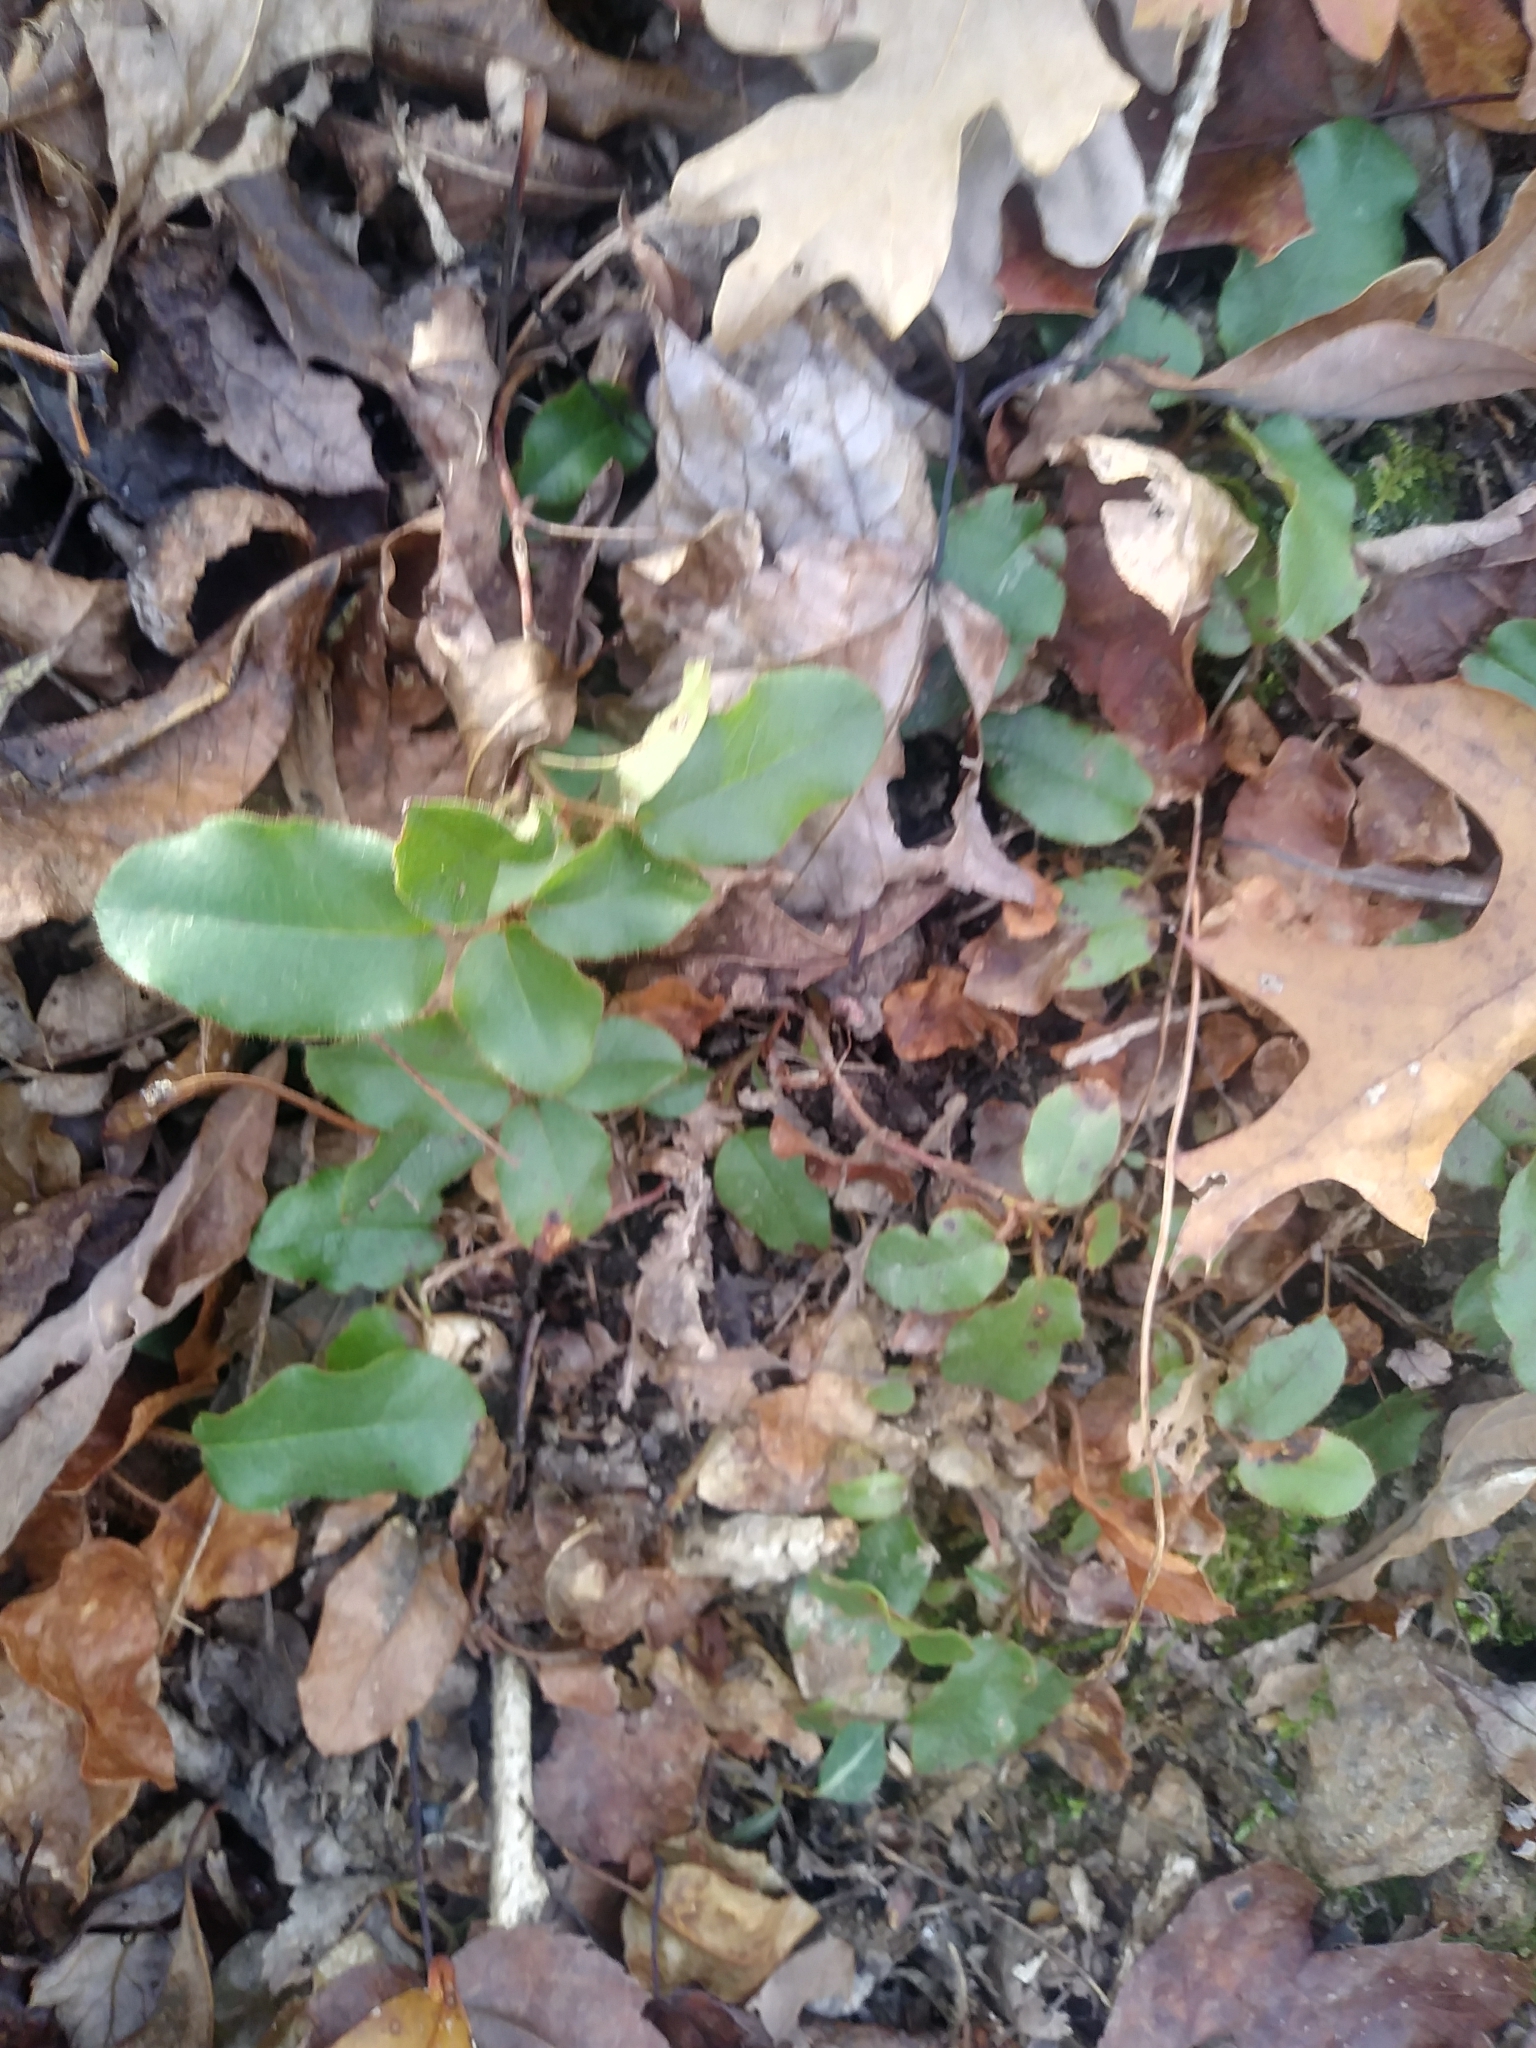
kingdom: Plantae
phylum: Tracheophyta
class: Magnoliopsida
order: Ericales
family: Ericaceae
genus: Epigaea
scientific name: Epigaea repens
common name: Gravelroot
